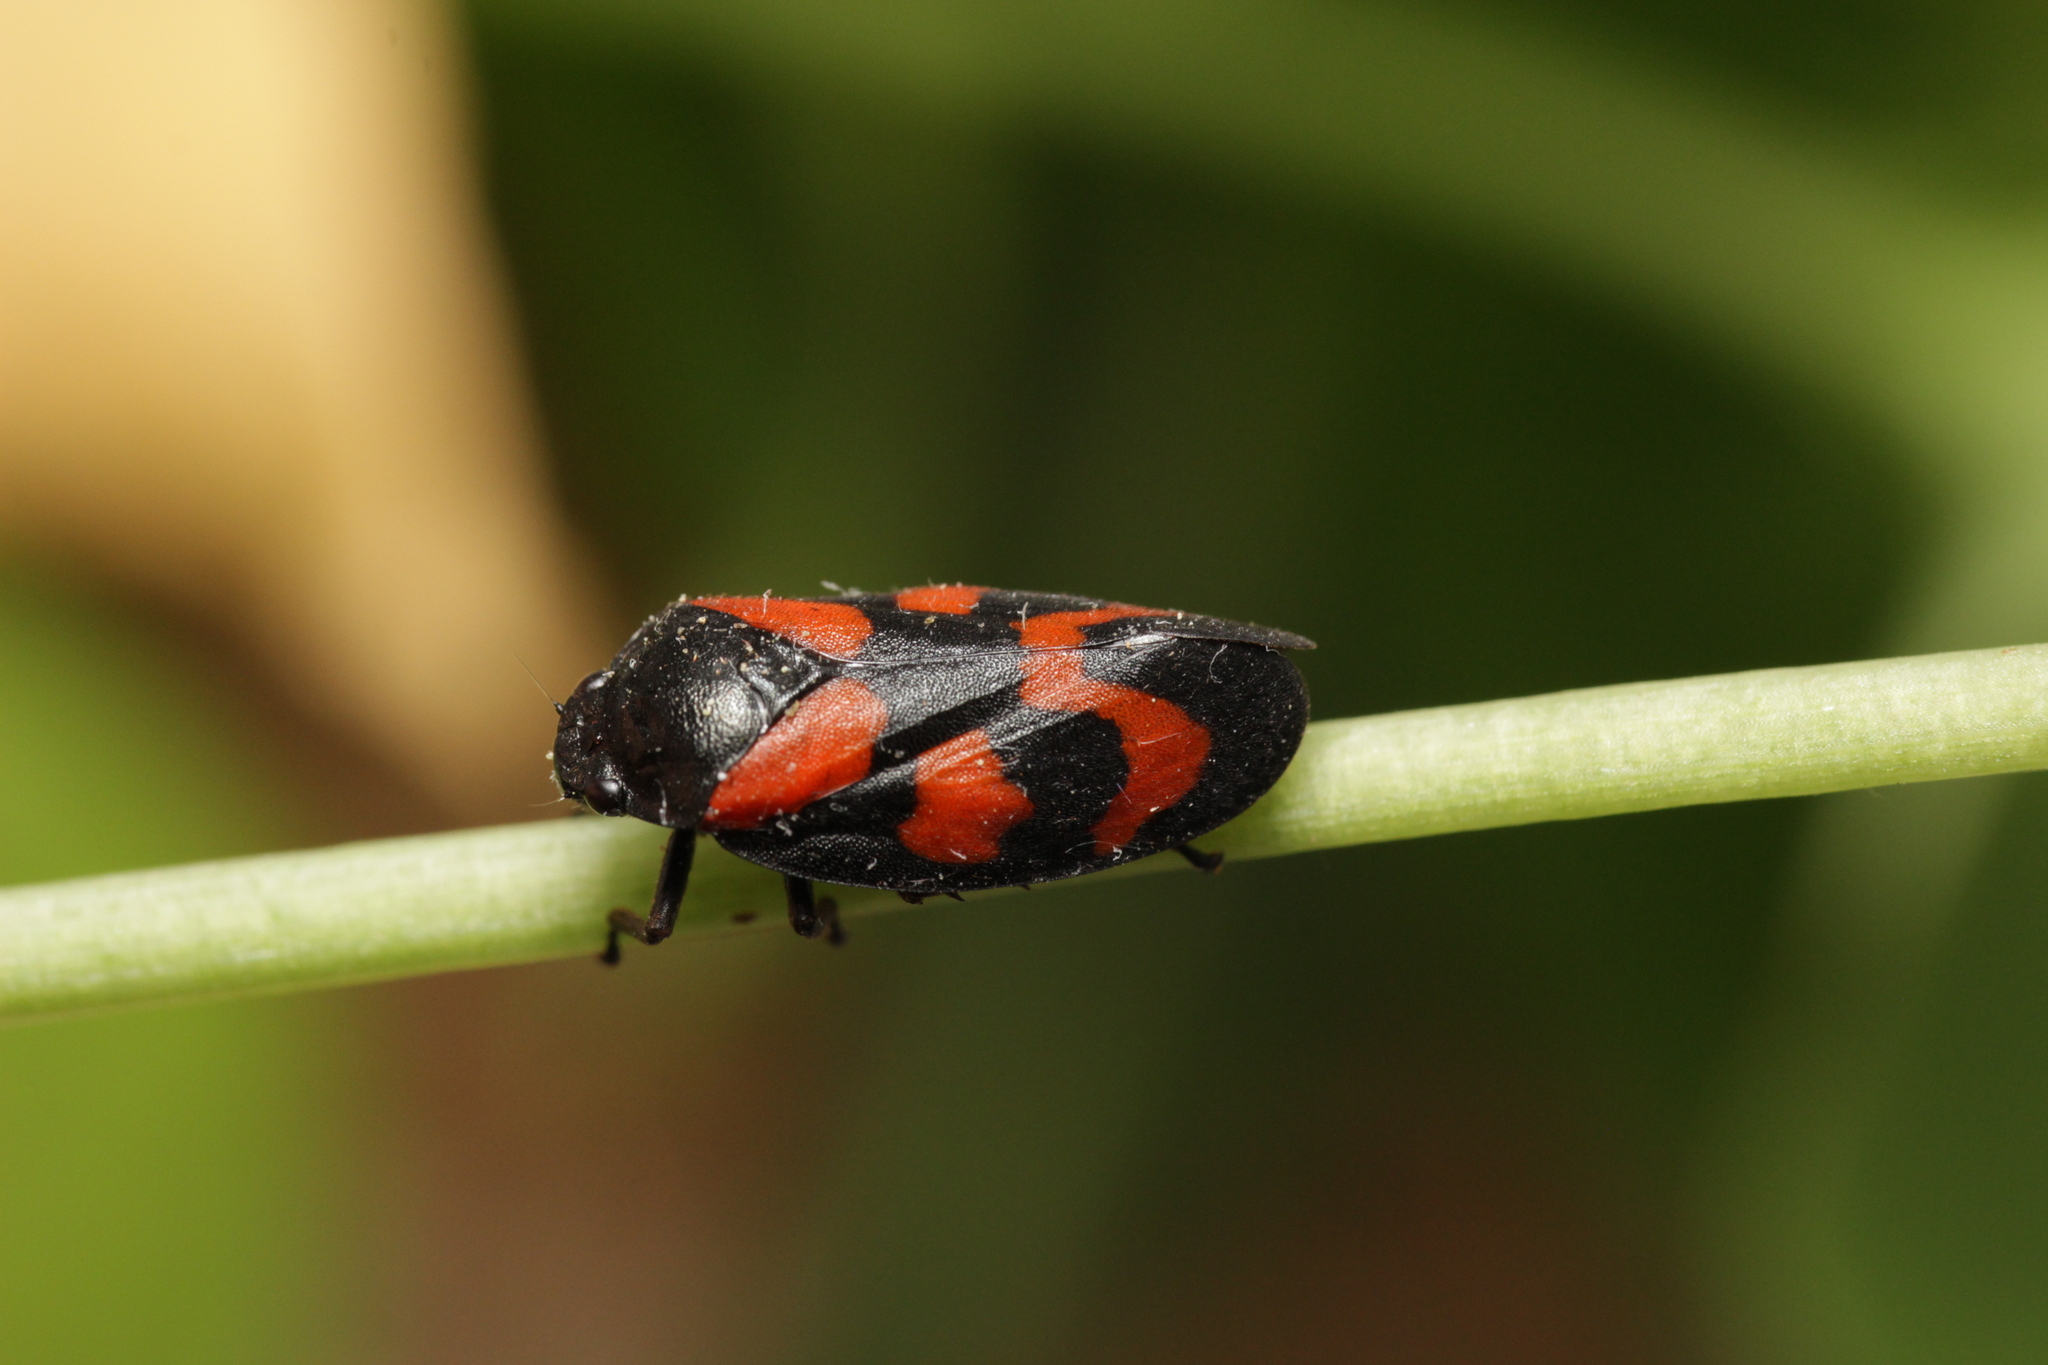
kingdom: Animalia
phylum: Arthropoda
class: Insecta
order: Hemiptera
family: Cercopidae
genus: Cercopis
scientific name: Cercopis vulnerata
